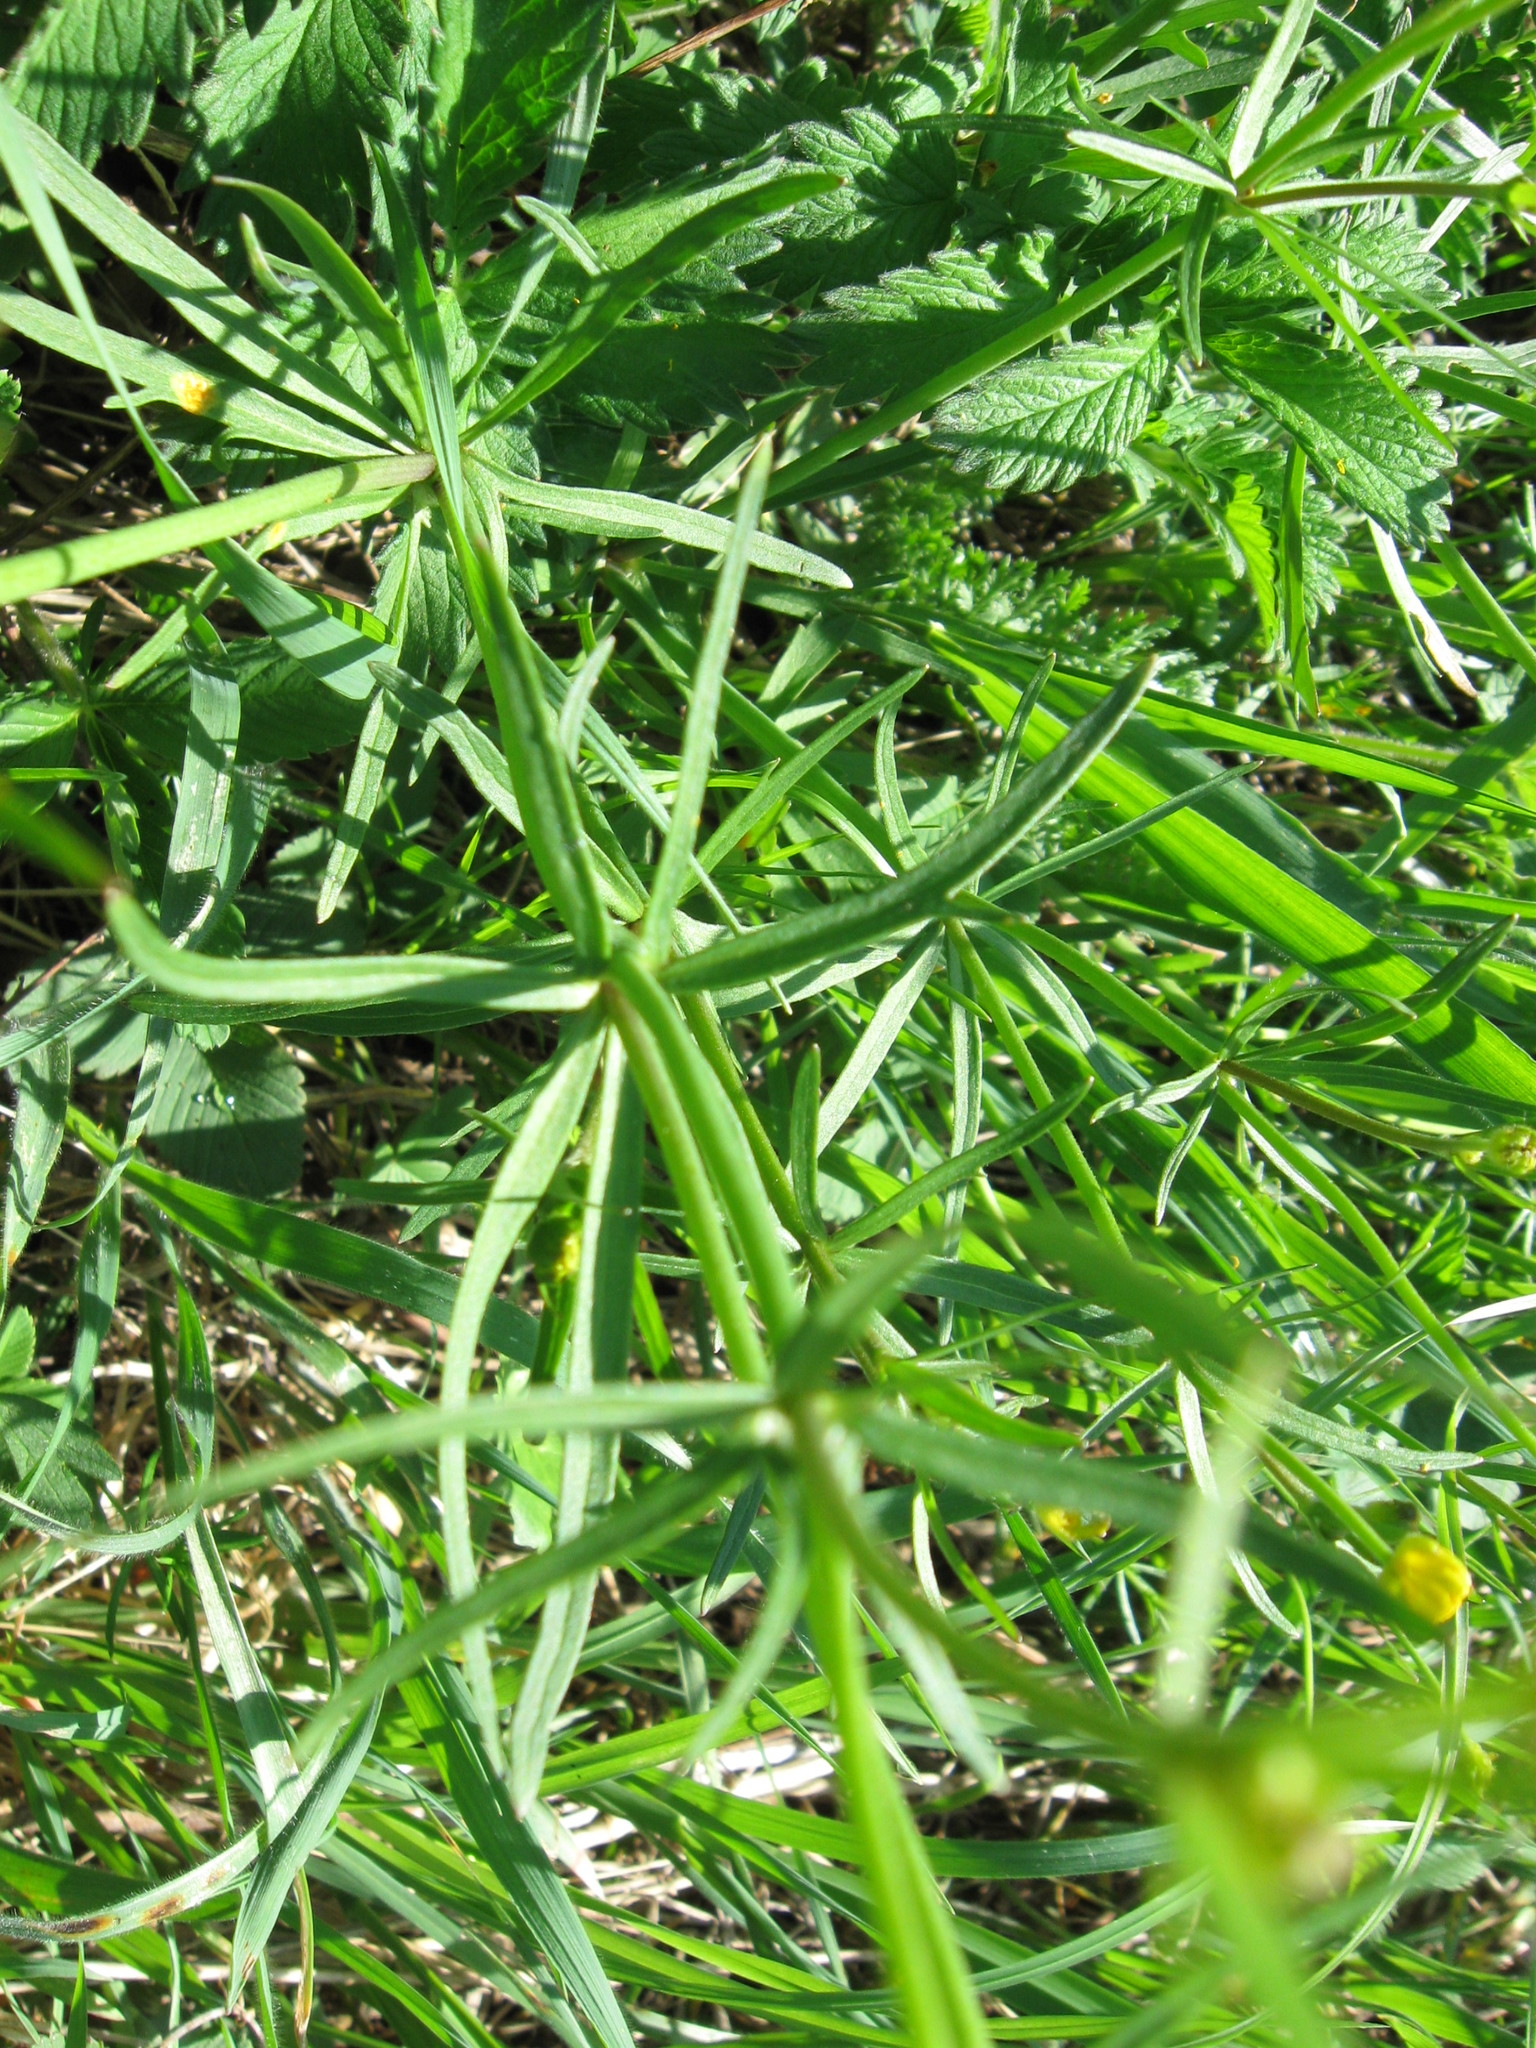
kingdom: Plantae
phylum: Tracheophyta
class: Magnoliopsida
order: Ranunculales
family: Ranunculaceae
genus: Ranunculus
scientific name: Ranunculus auricomus
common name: Goldilocks buttercup
